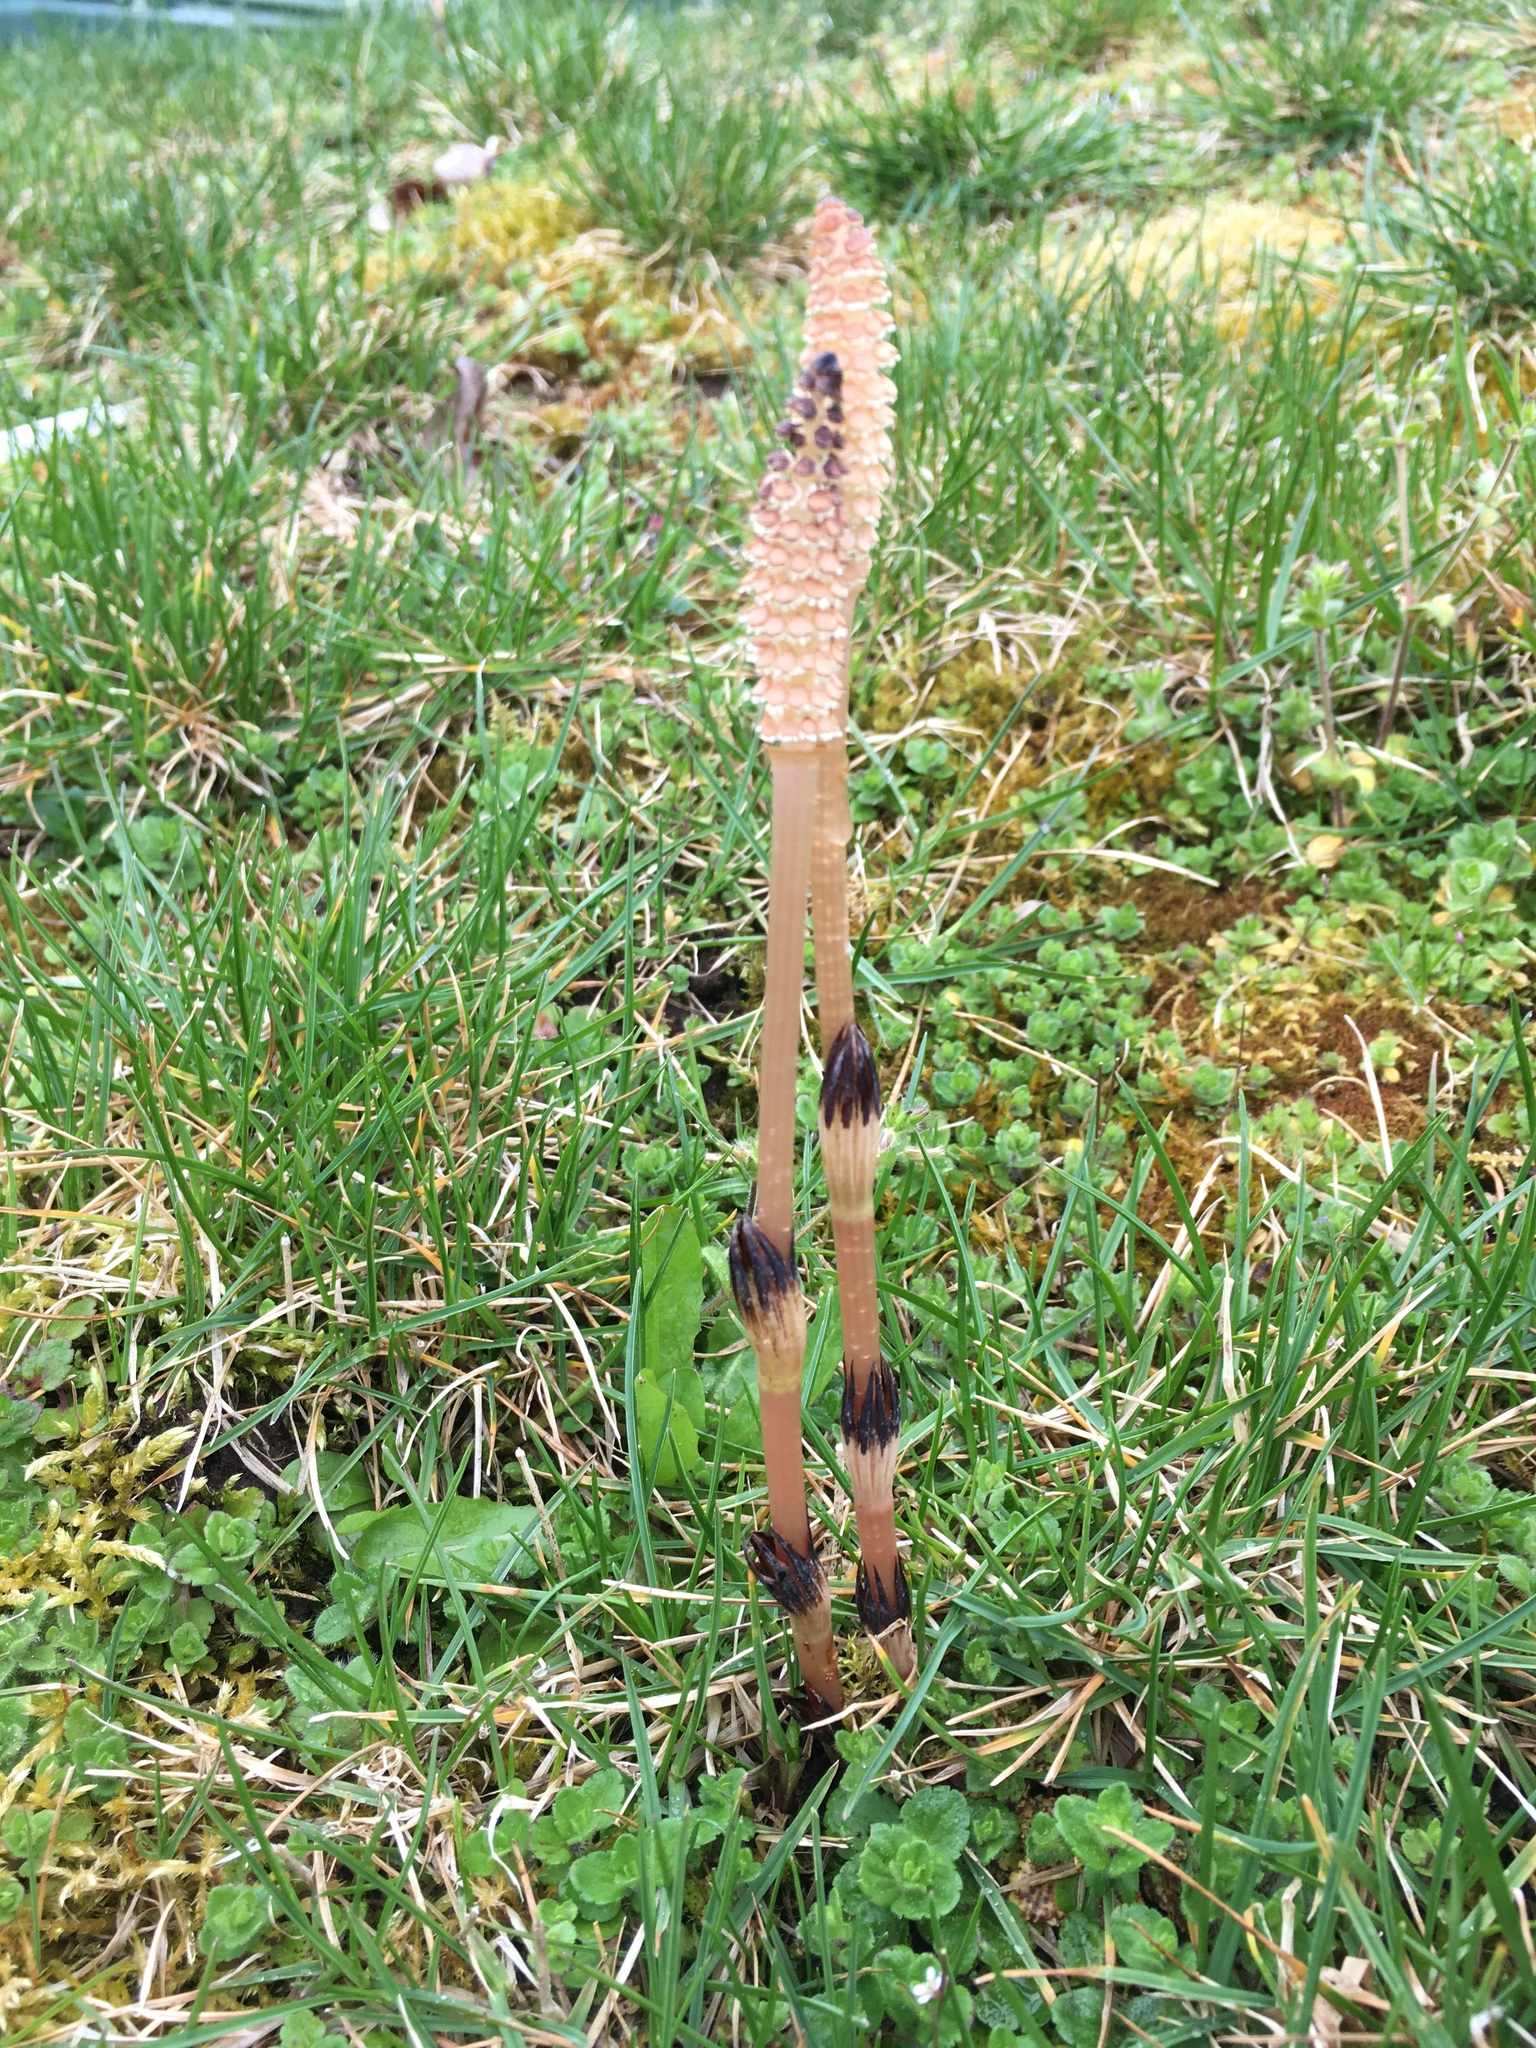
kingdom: Plantae
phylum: Tracheophyta
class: Polypodiopsida
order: Equisetales
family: Equisetaceae
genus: Equisetum
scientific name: Equisetum arvense
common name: Field horsetail
